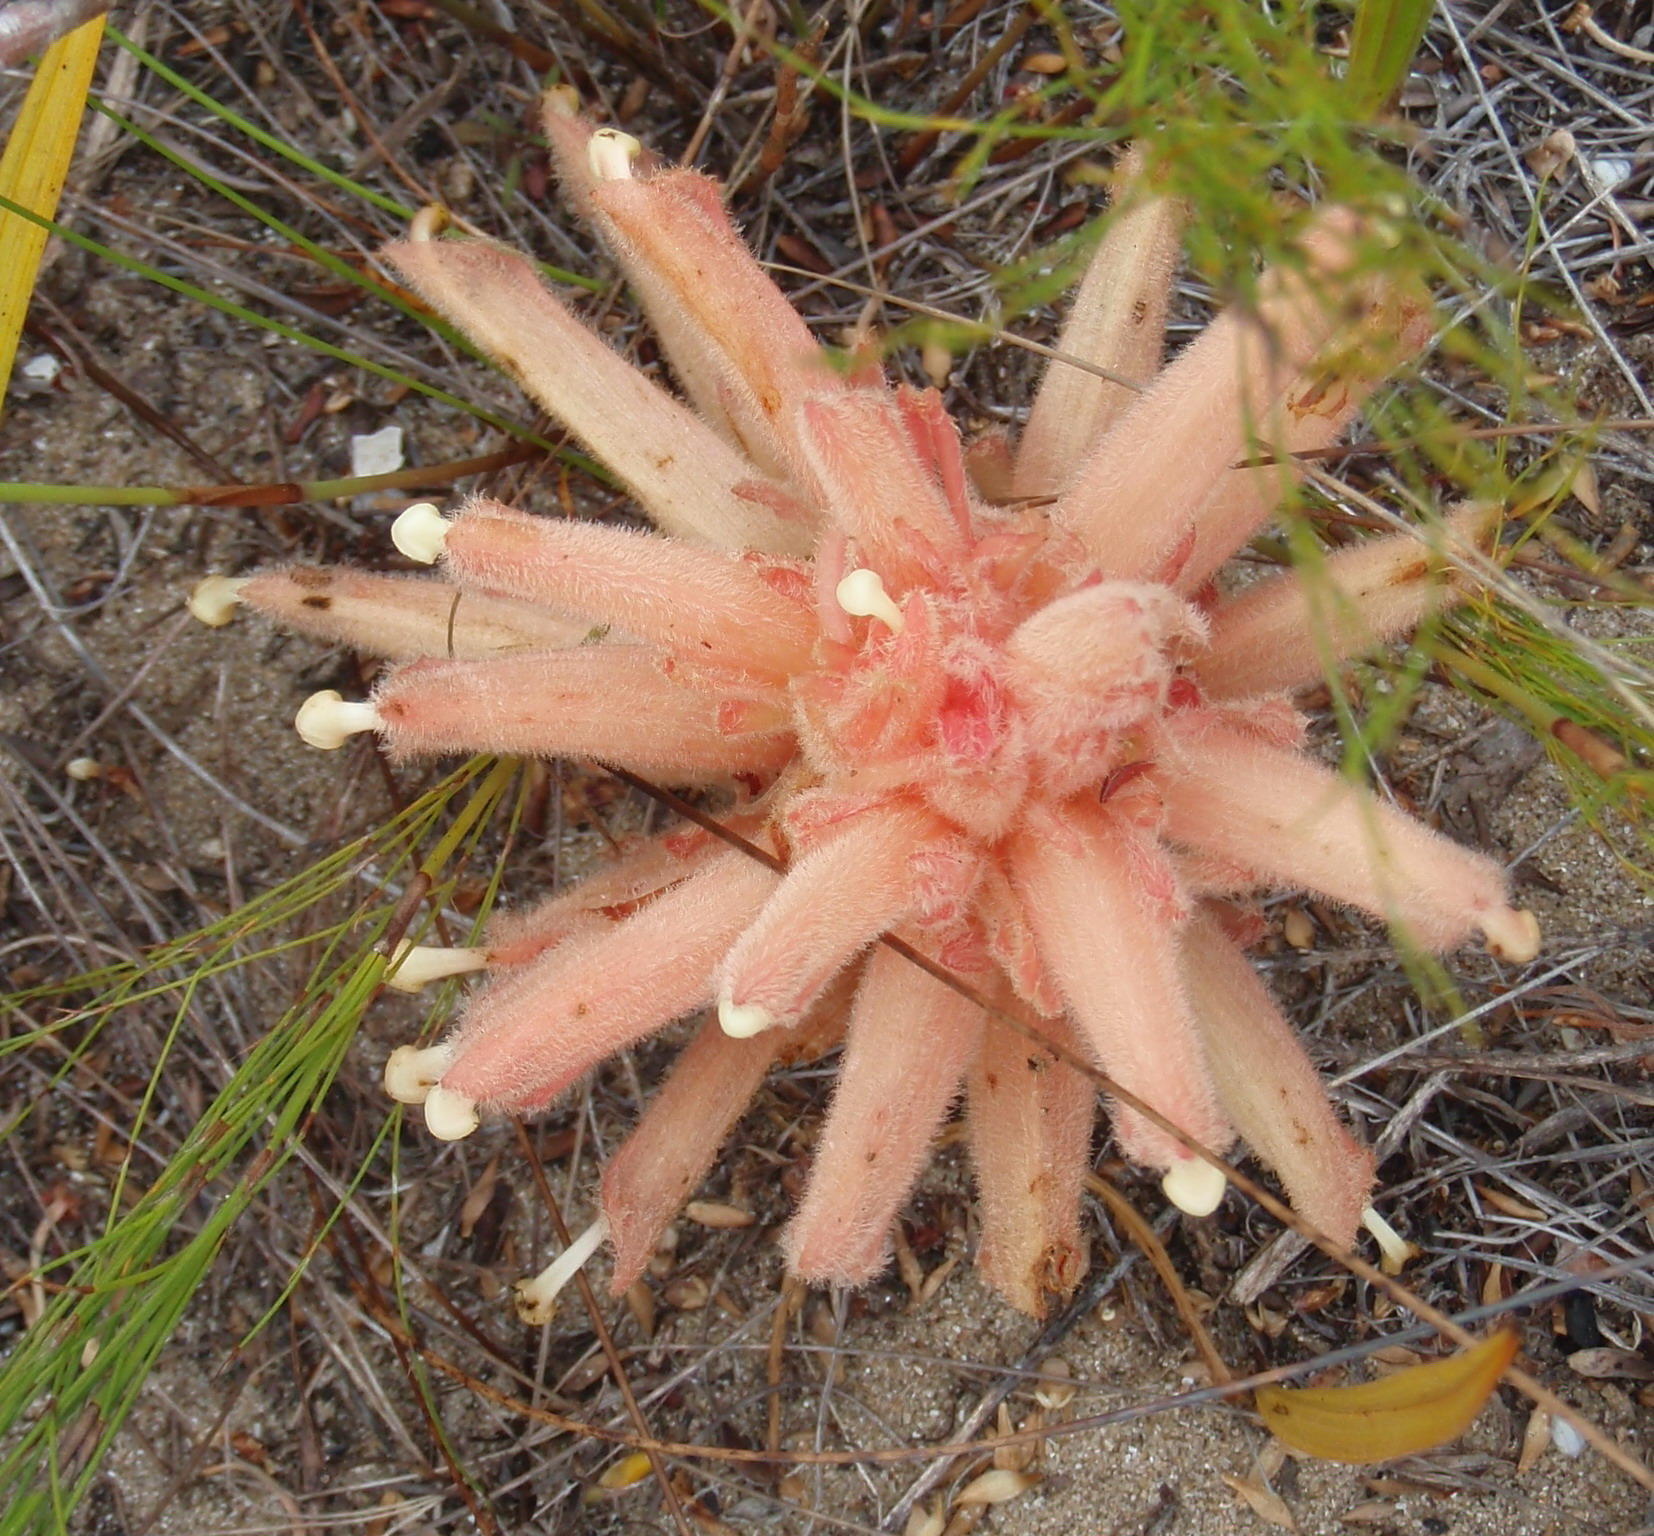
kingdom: Plantae
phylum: Tracheophyta
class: Magnoliopsida
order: Lamiales
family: Orobanchaceae
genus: Hyobanche
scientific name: Hyobanche rubra
